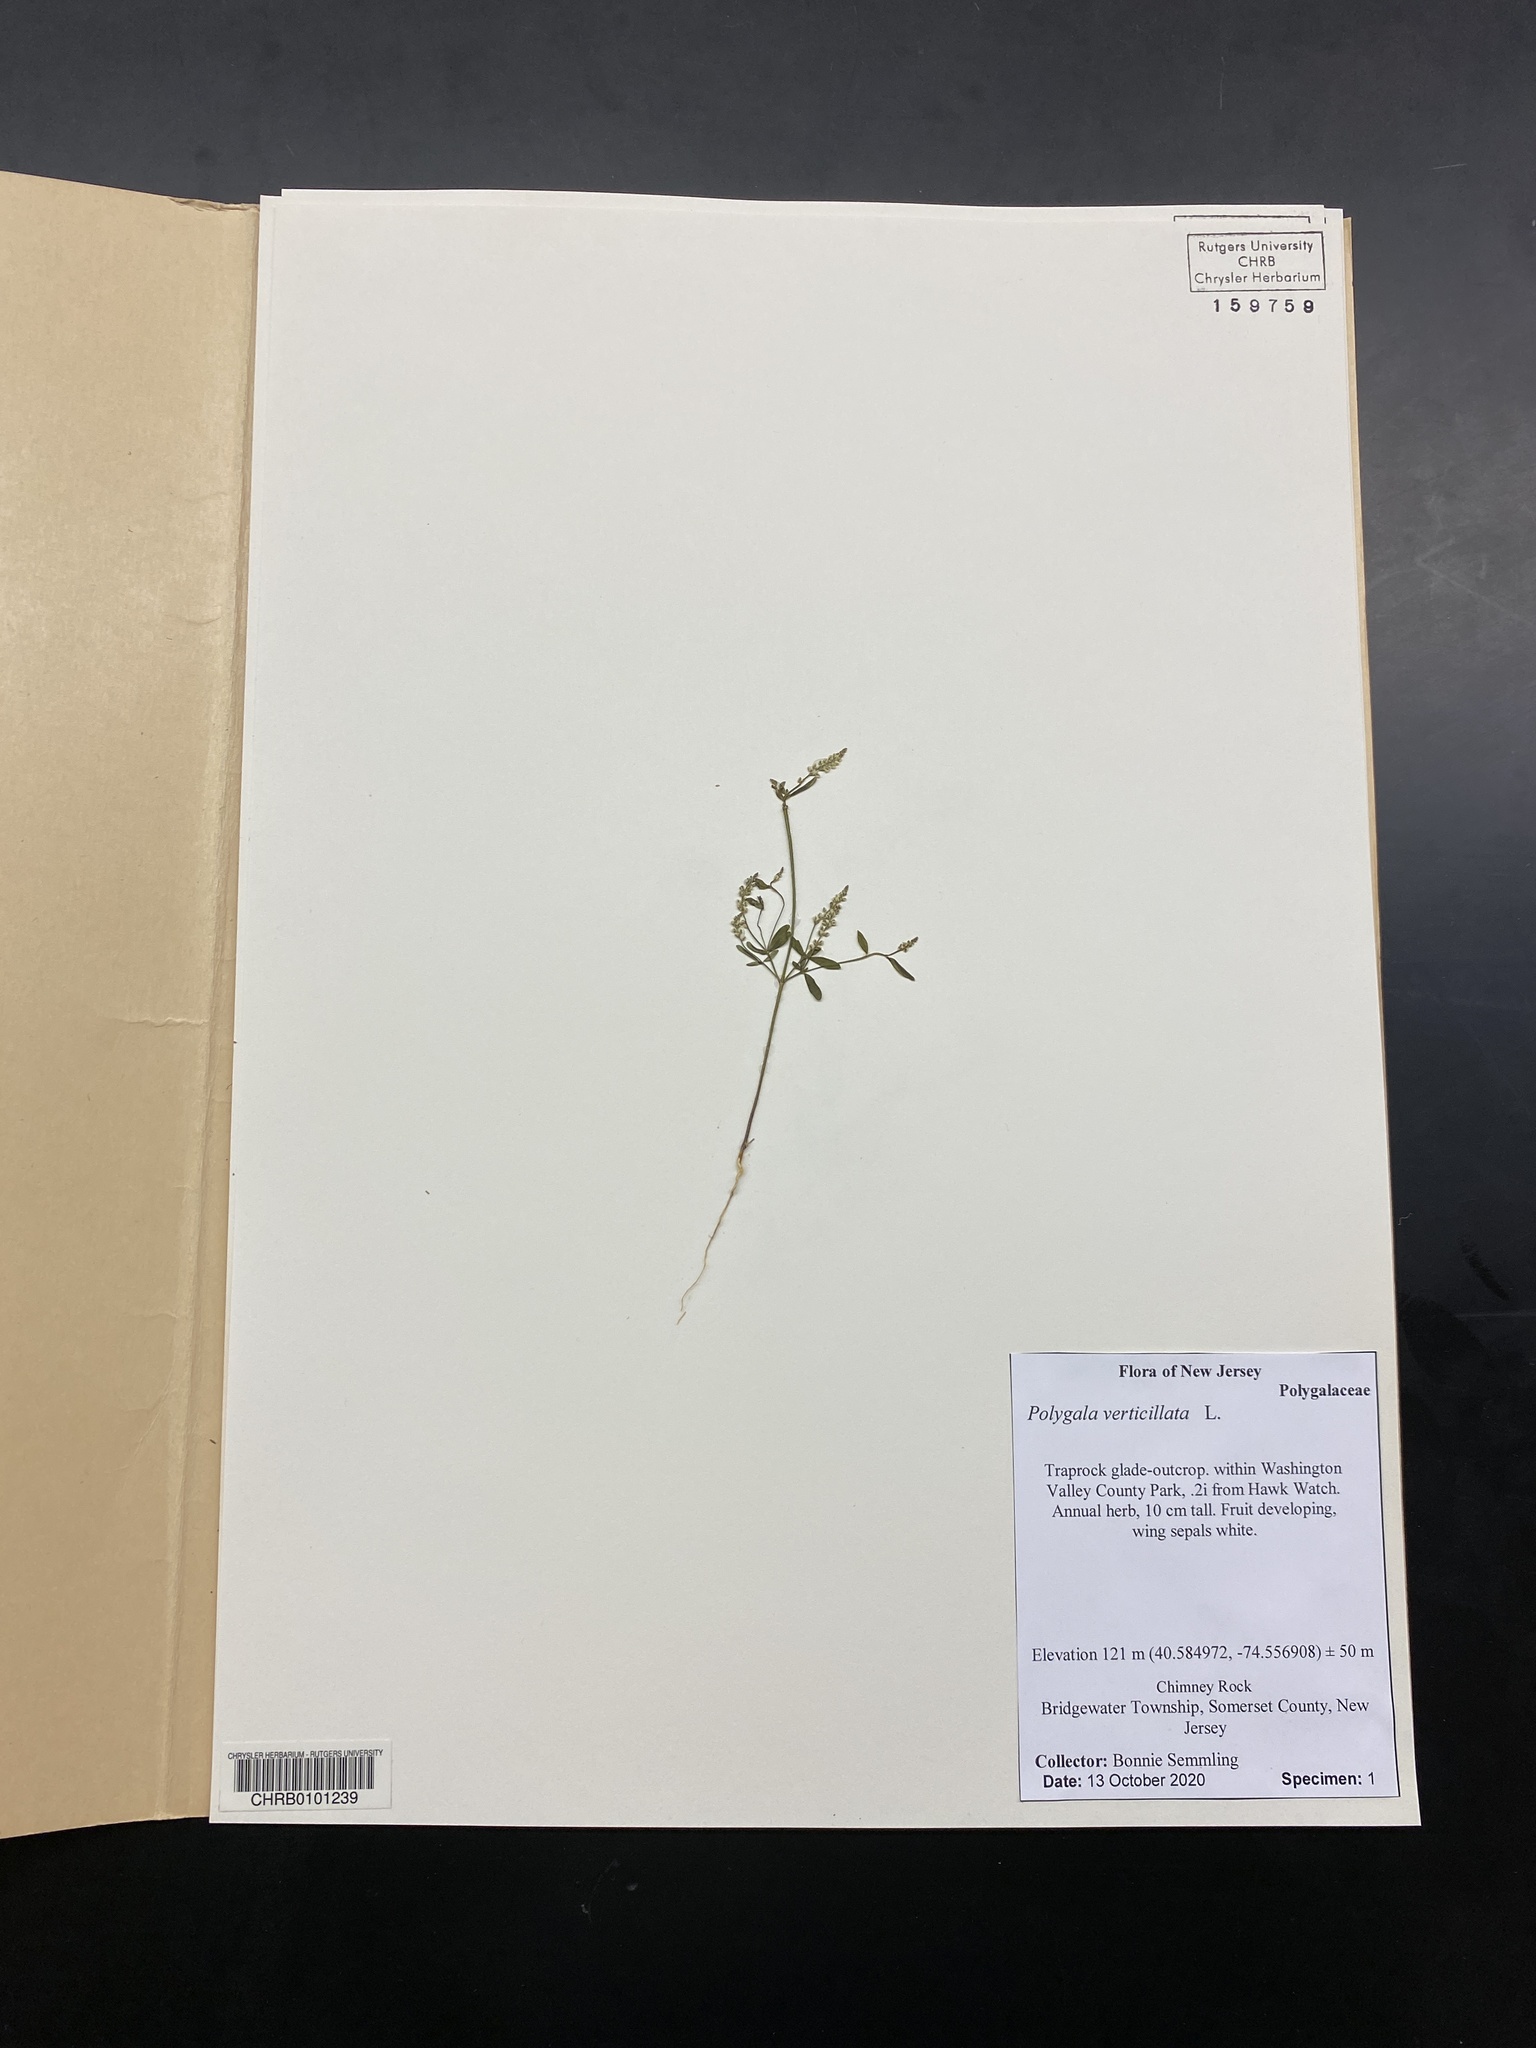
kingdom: Plantae
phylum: Tracheophyta
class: Magnoliopsida
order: Fabales
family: Polygalaceae
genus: Polygala
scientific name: Polygala verticillata
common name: Whorl milkwort
